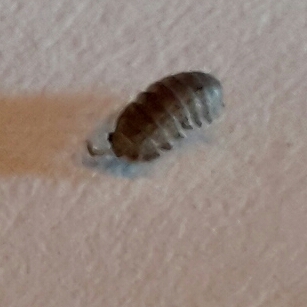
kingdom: Animalia
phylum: Arthropoda
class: Malacostraca
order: Isopoda
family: Detonidae
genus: Armadilloniscus
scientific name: Armadilloniscus lindahli
